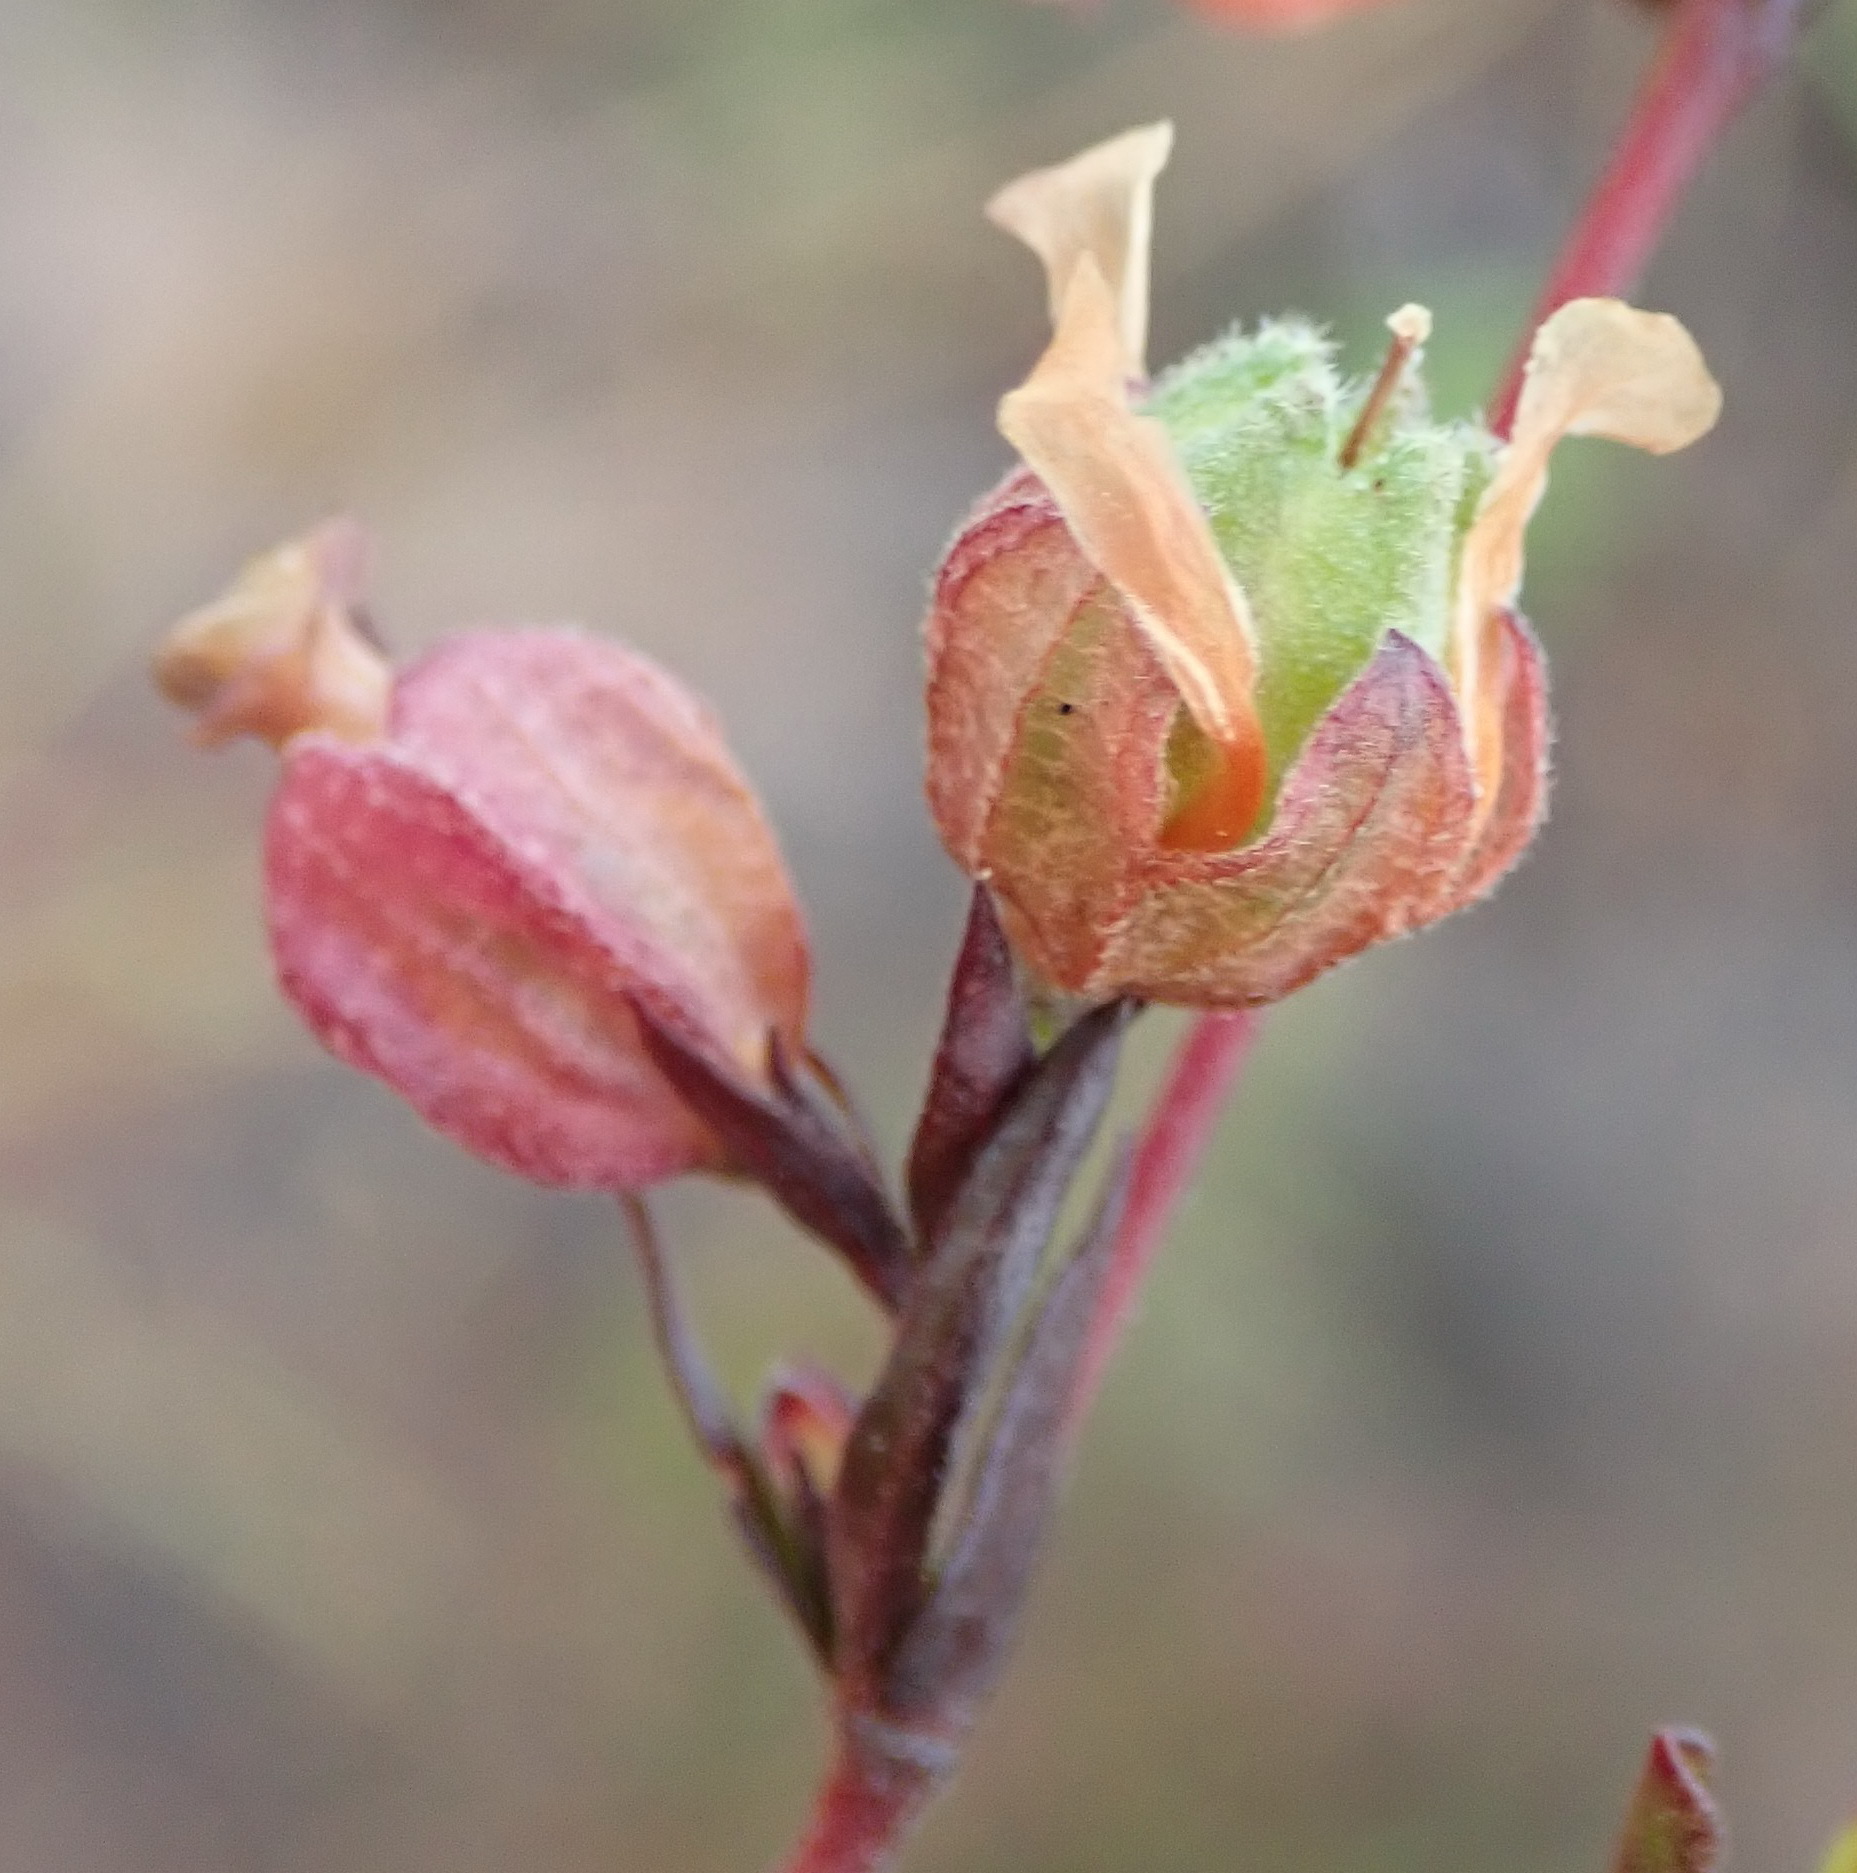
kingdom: Plantae
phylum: Tracheophyta
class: Magnoliopsida
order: Malvales
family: Malvaceae
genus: Hermannia
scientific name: Hermannia angularis
